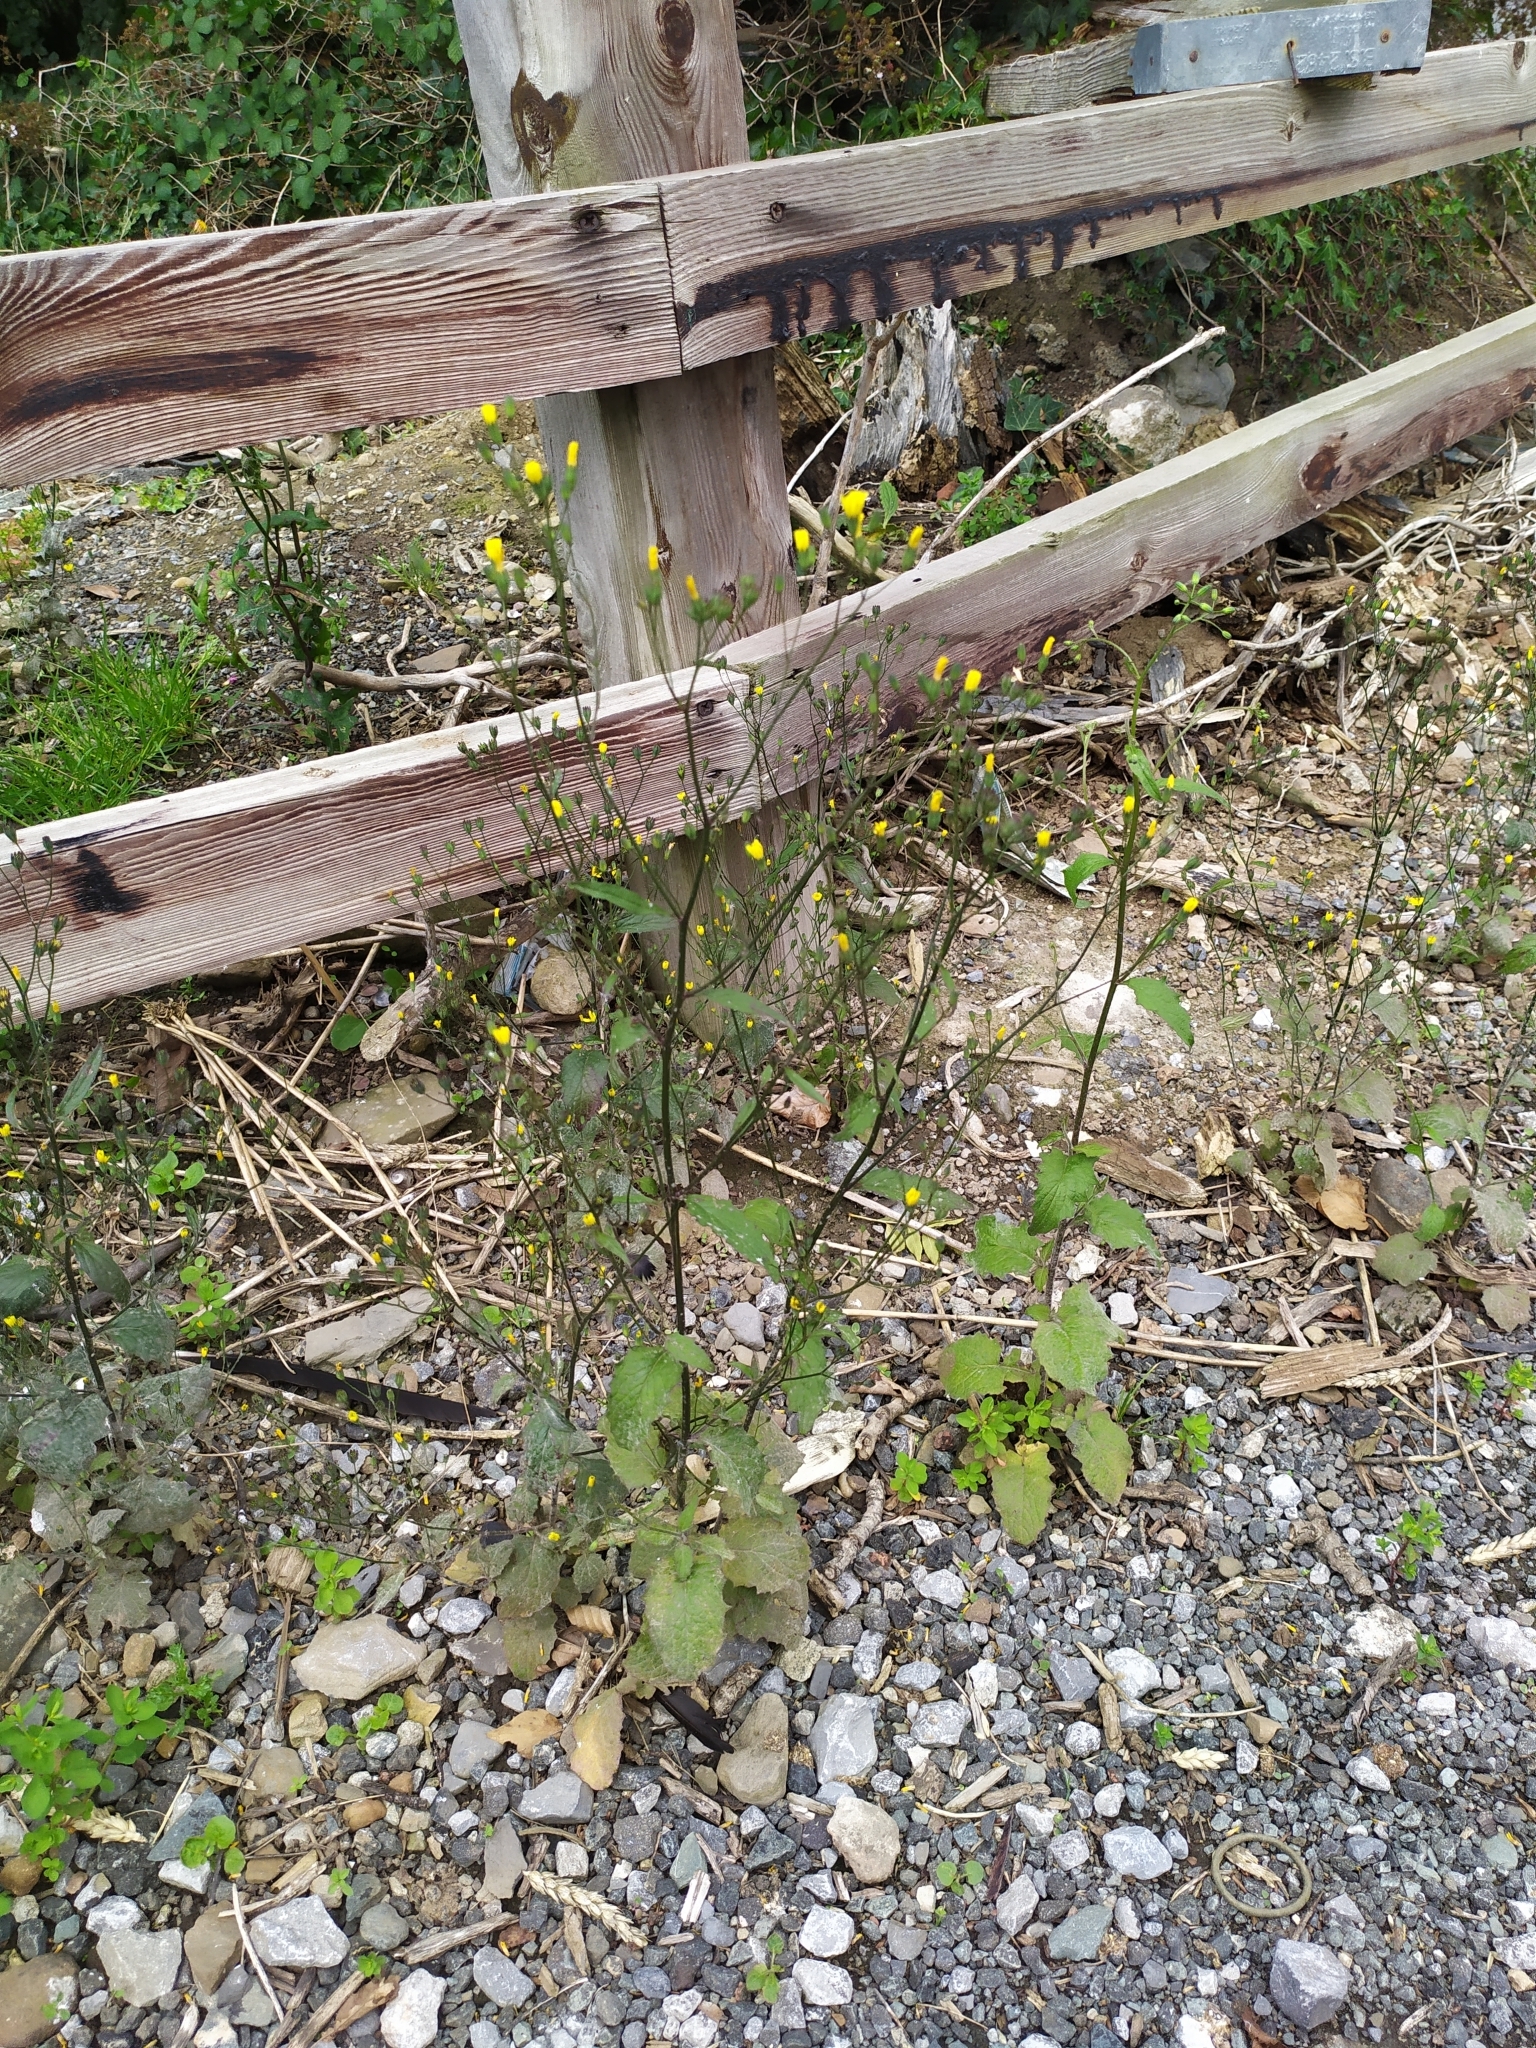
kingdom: Plantae
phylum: Tracheophyta
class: Magnoliopsida
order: Asterales
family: Asteraceae
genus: Lapsana
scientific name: Lapsana communis
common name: Nipplewort
